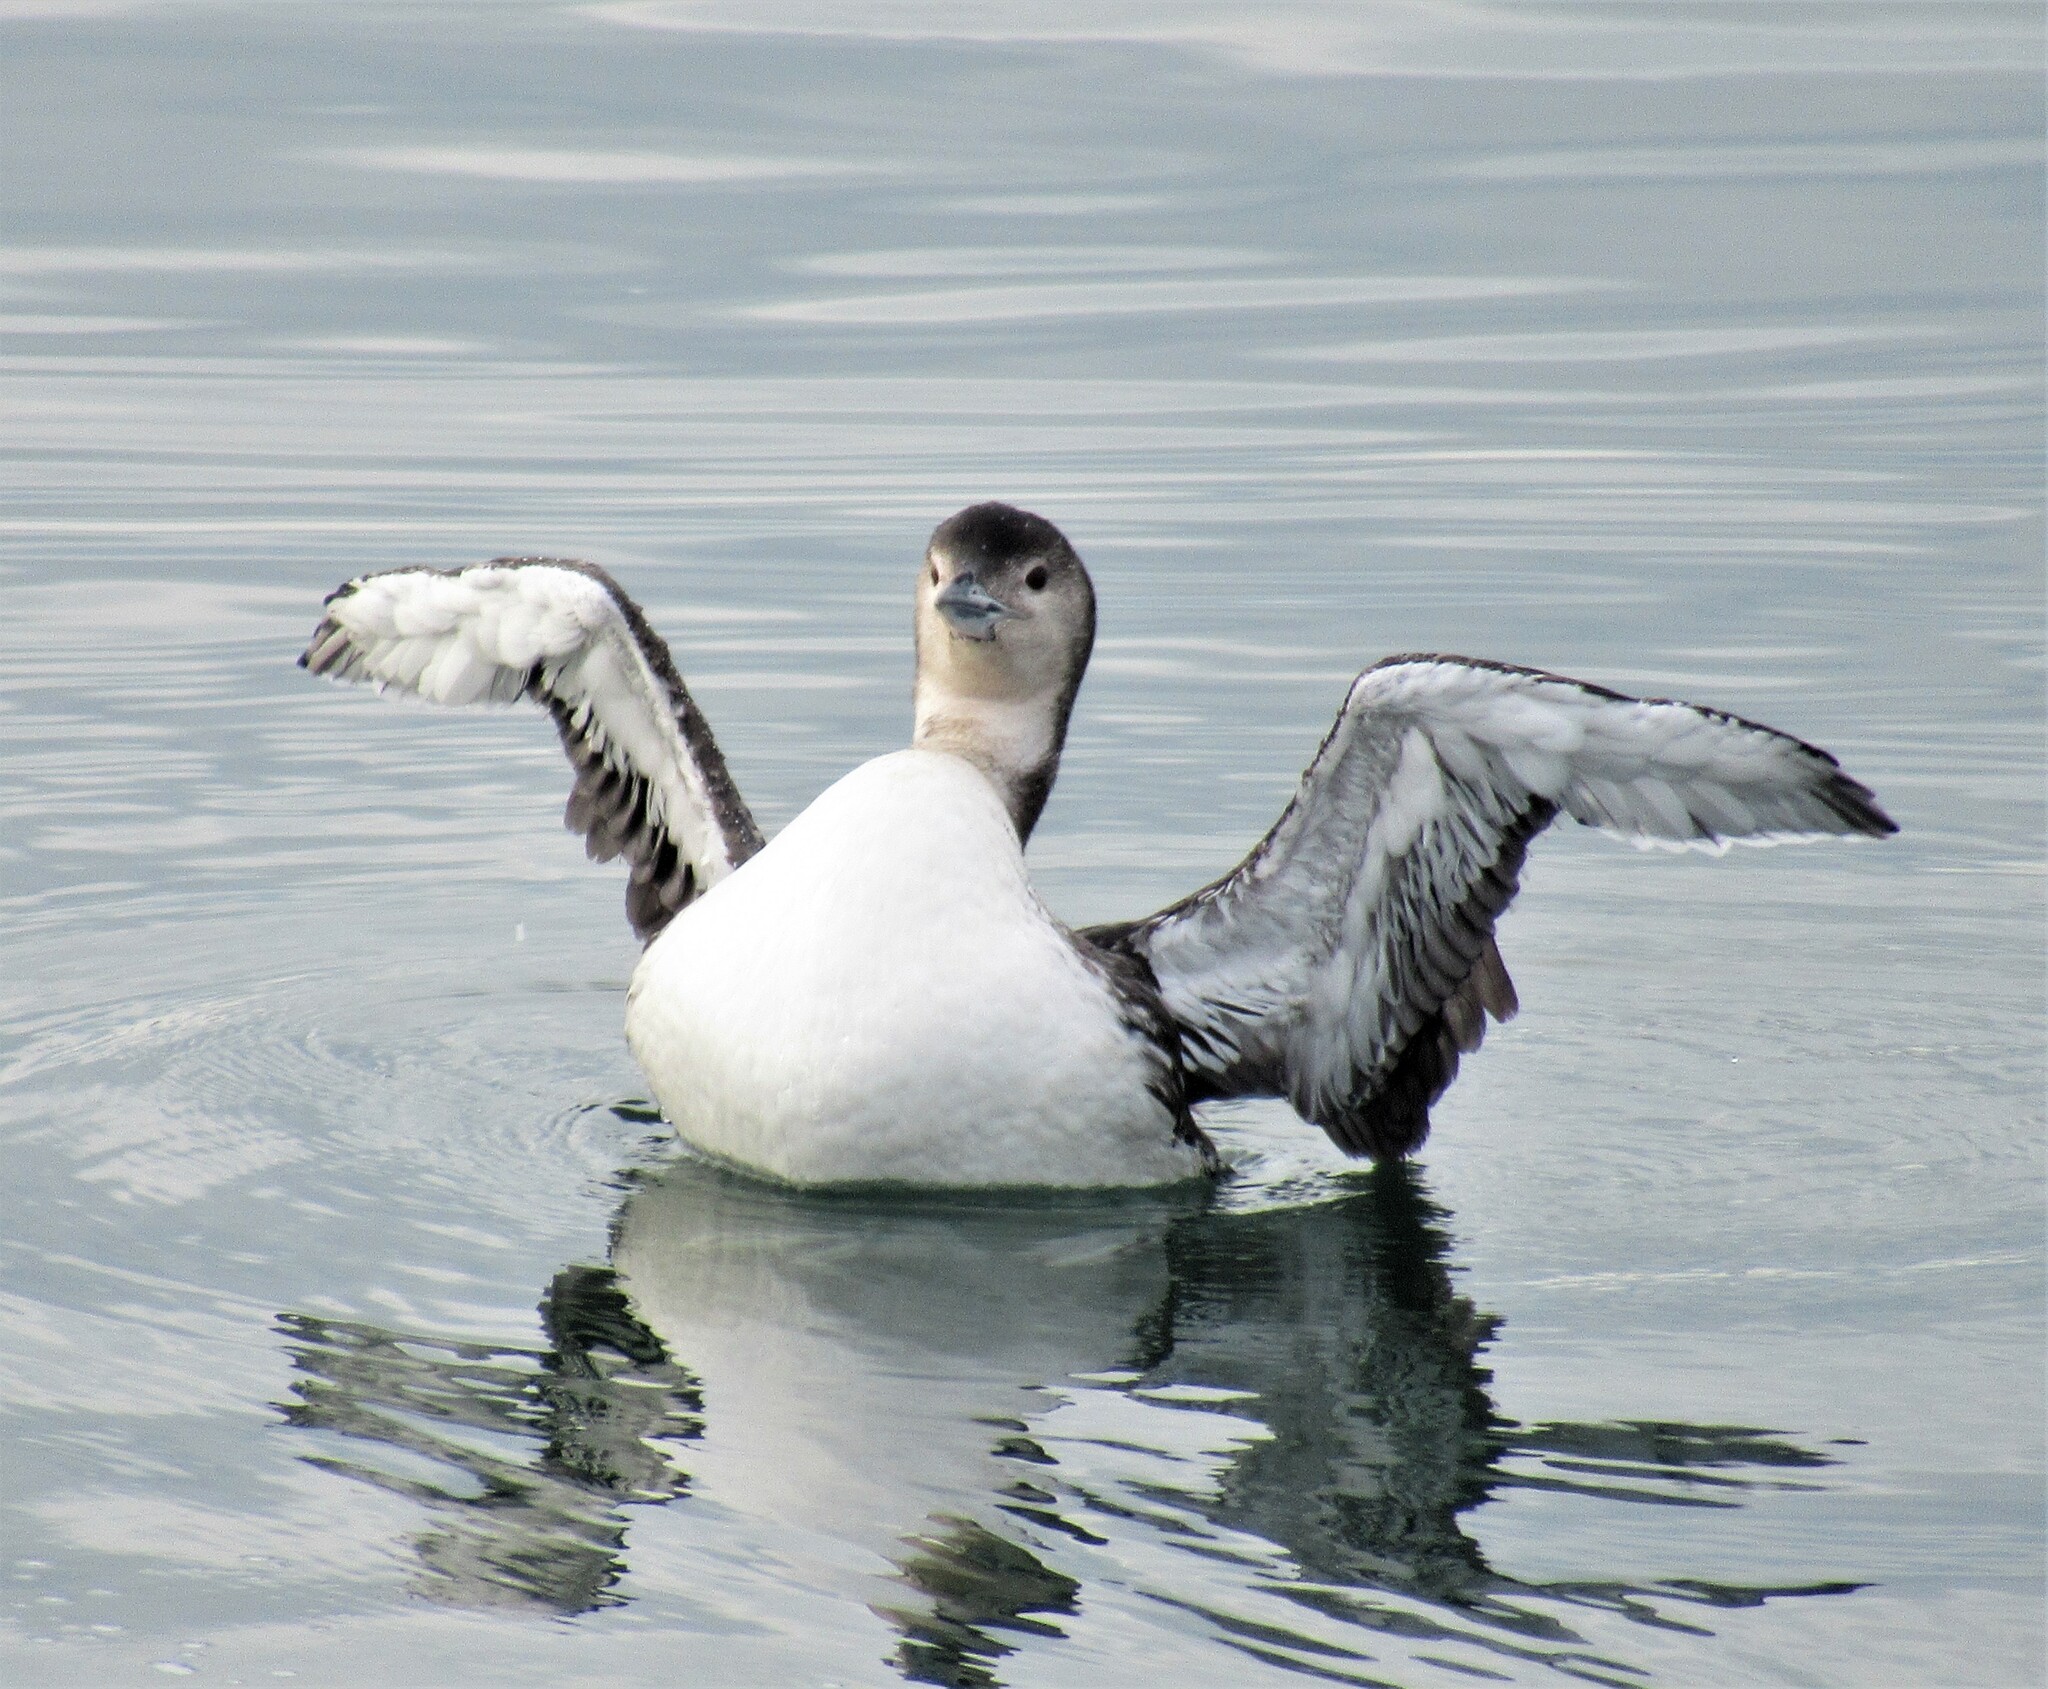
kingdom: Animalia
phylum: Chordata
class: Aves
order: Gaviiformes
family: Gaviidae
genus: Gavia
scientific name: Gavia immer
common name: Common loon
